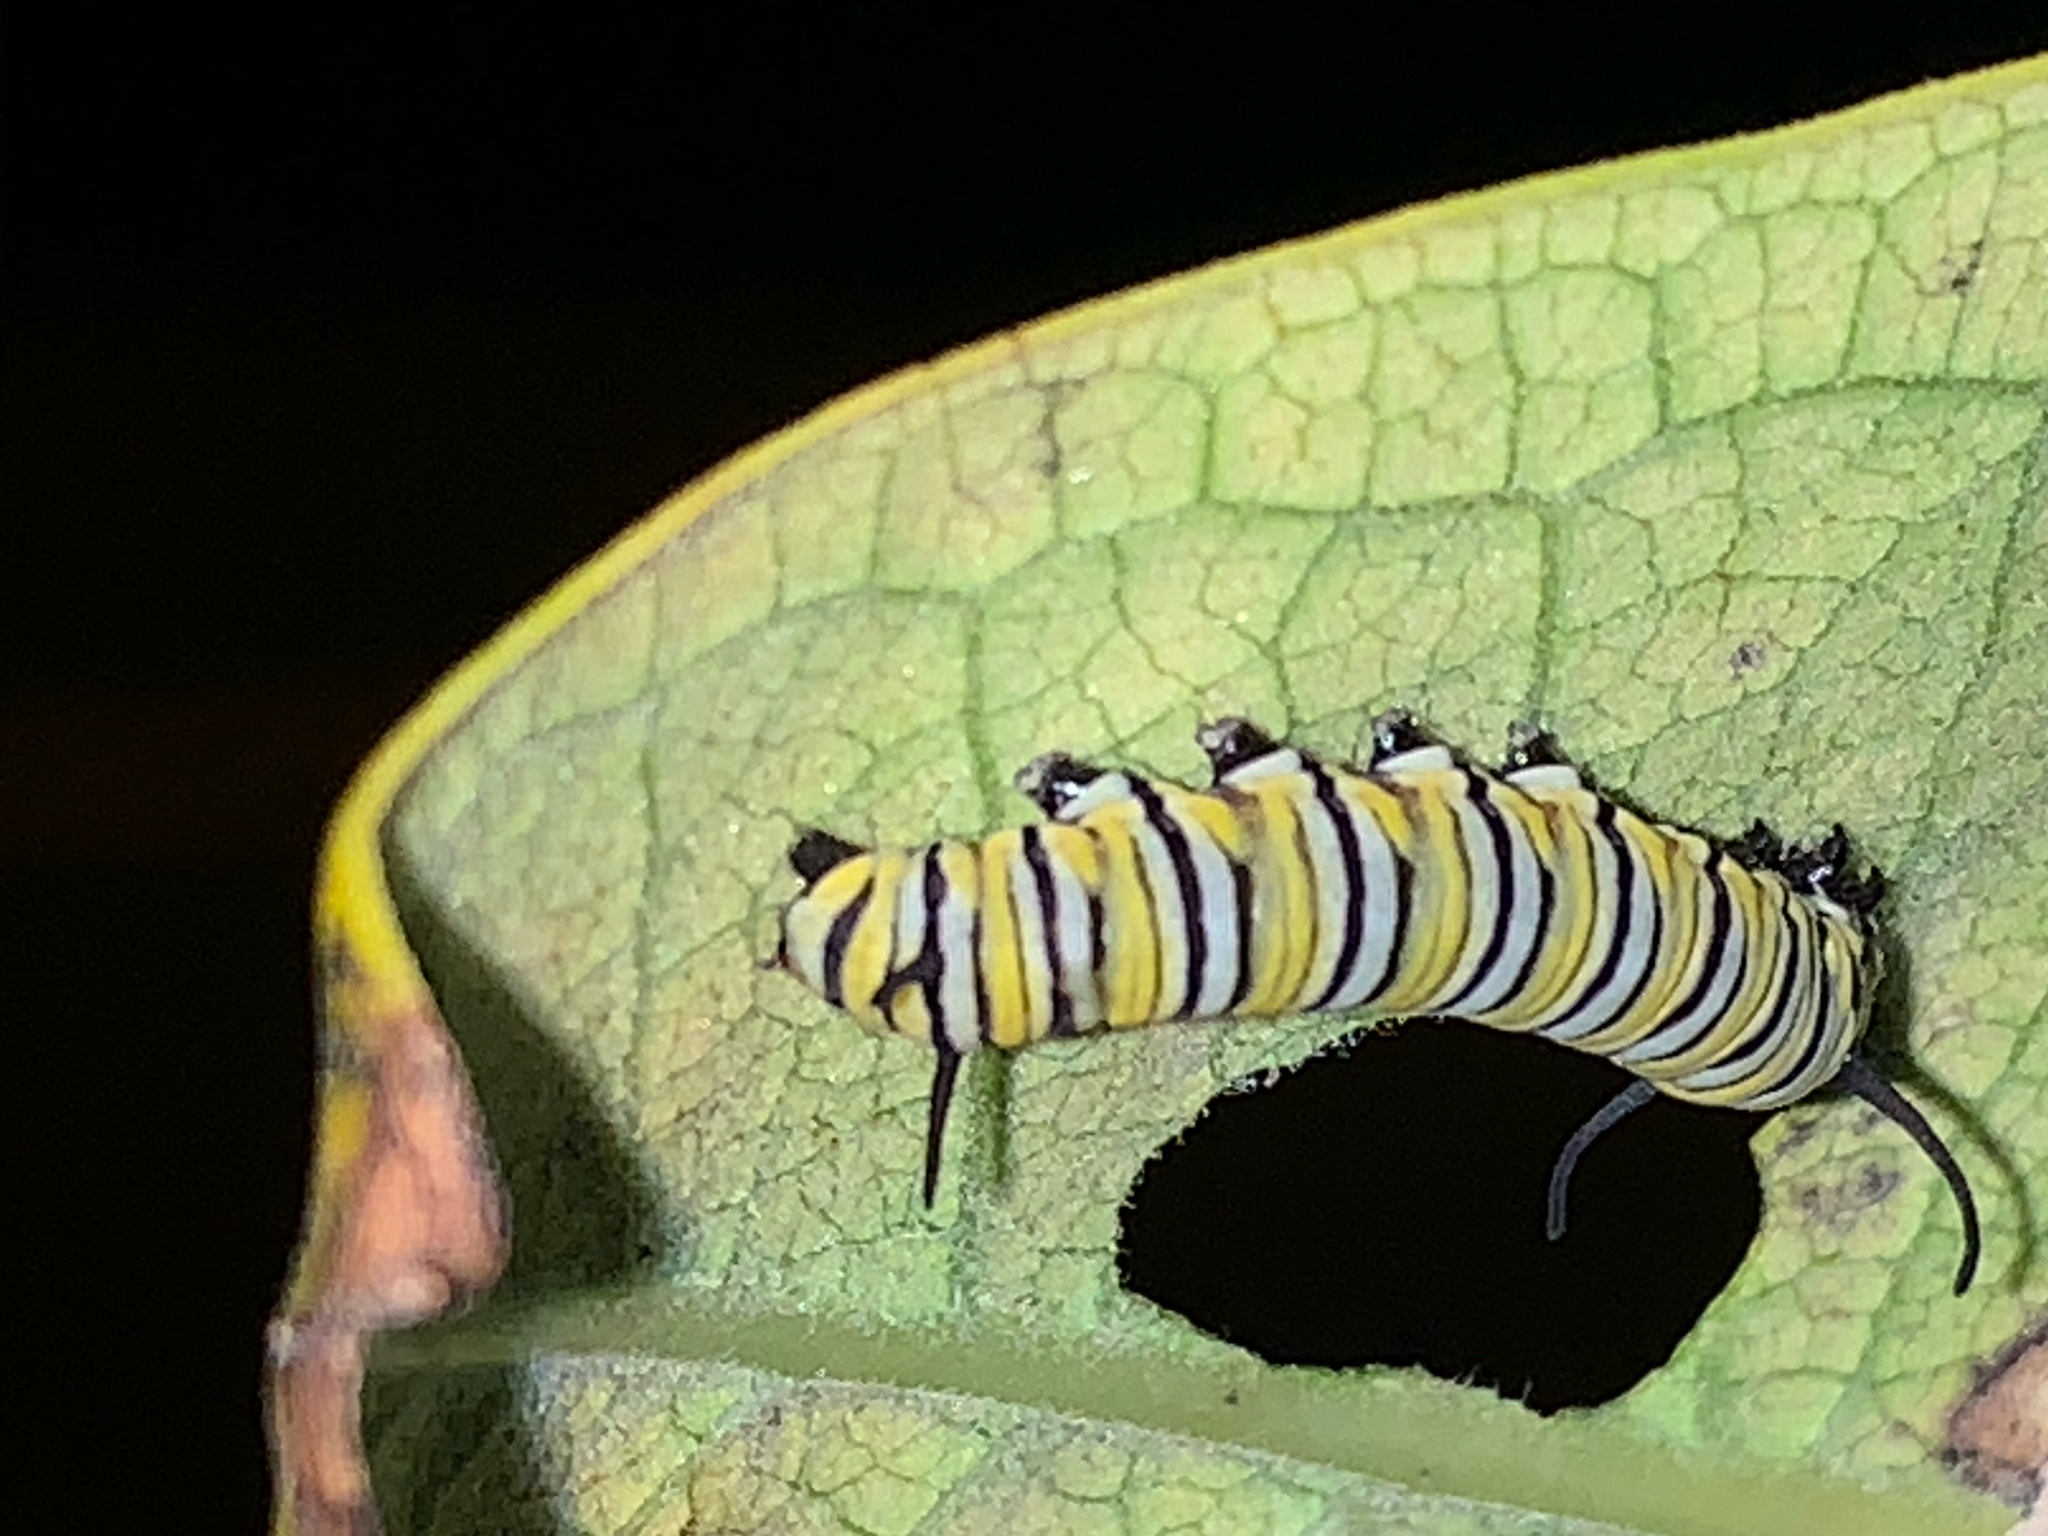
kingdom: Animalia
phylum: Arthropoda
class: Insecta
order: Lepidoptera
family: Nymphalidae
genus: Danaus
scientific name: Danaus plexippus
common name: Monarch
